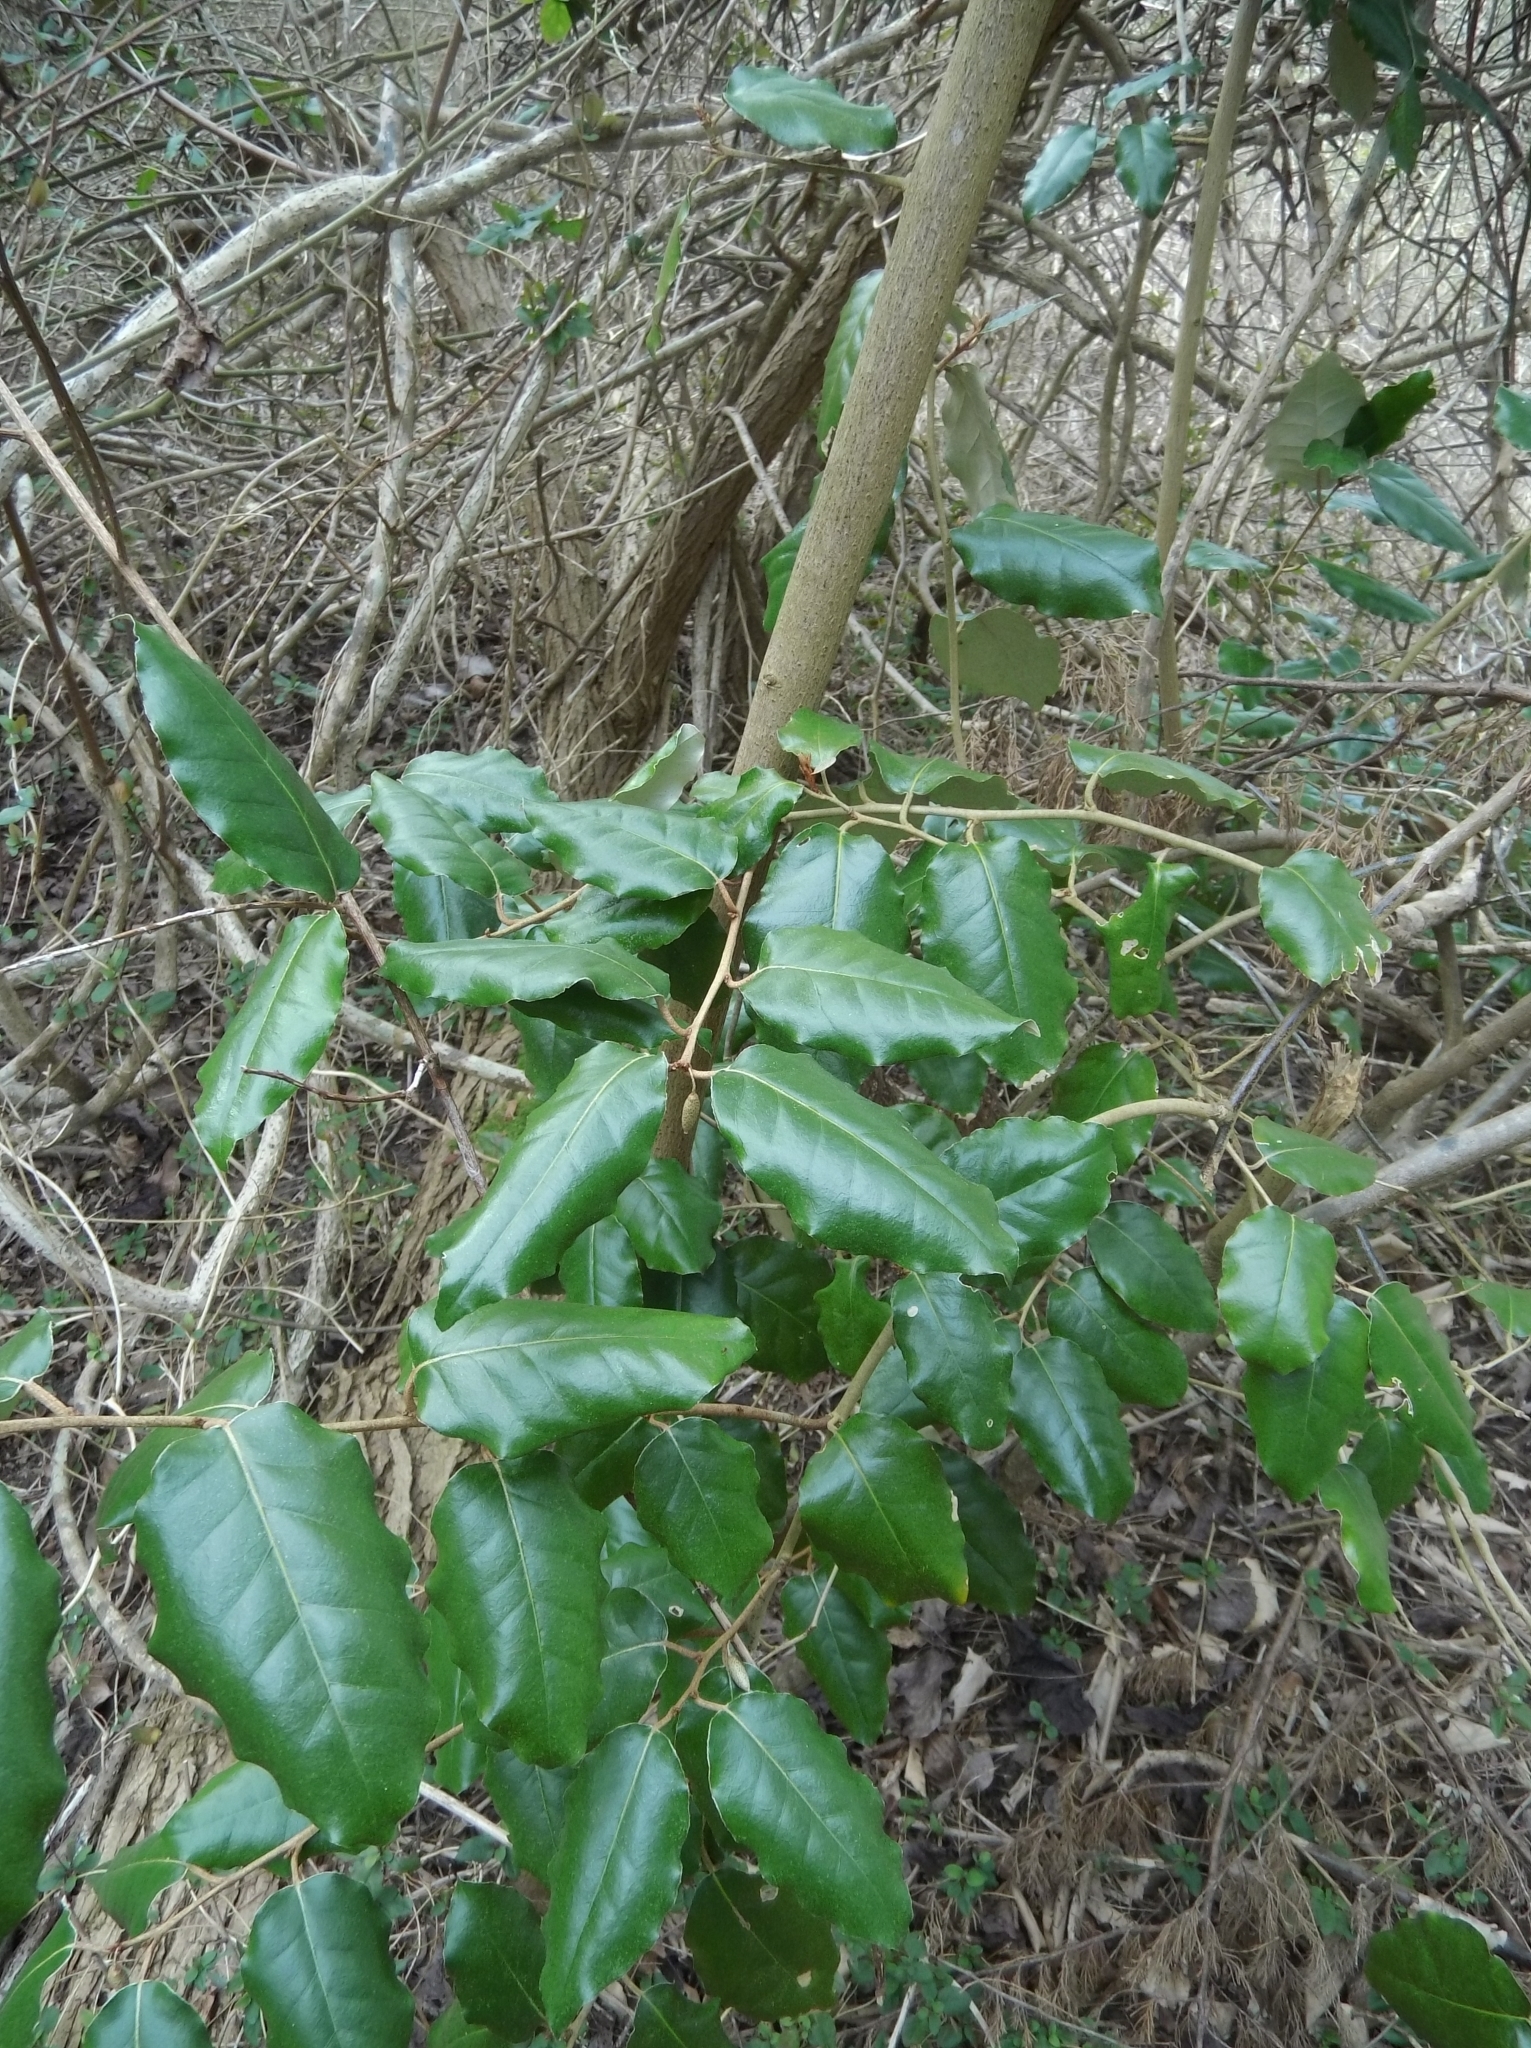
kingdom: Plantae
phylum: Tracheophyta
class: Magnoliopsida
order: Rosales
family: Elaeagnaceae
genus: Elaeagnus
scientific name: Elaeagnus pungens
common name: Spiny oleaster
